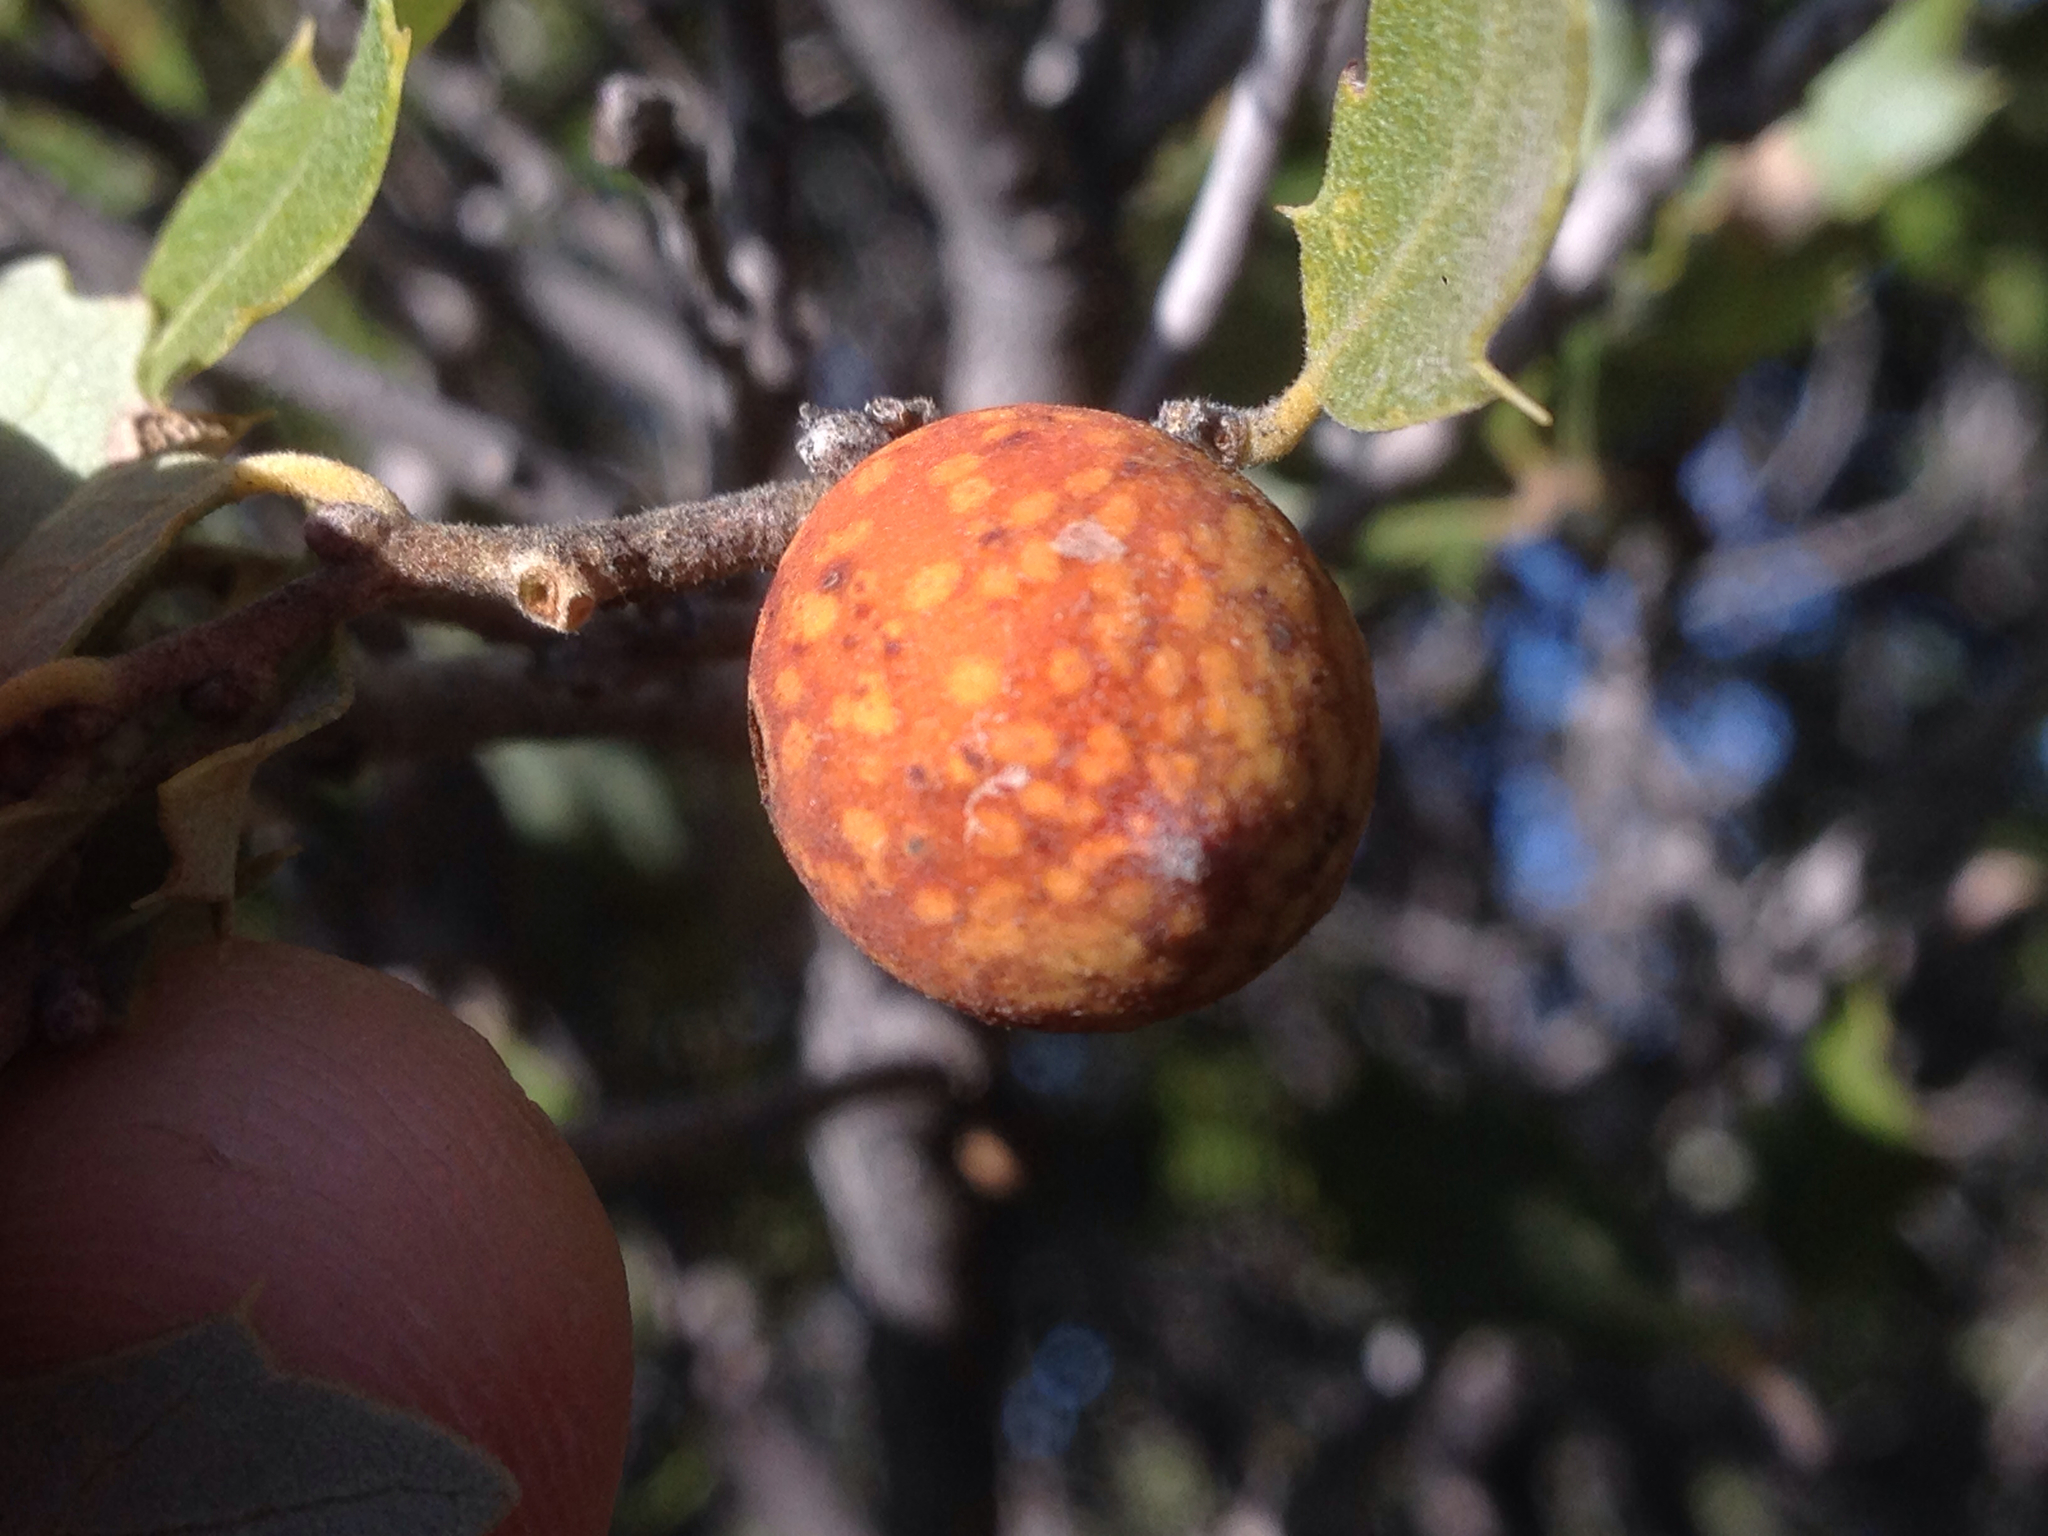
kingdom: Animalia
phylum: Arthropoda
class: Insecta
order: Hymenoptera
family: Cynipidae
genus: Burnettweldia
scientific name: Burnettweldia
